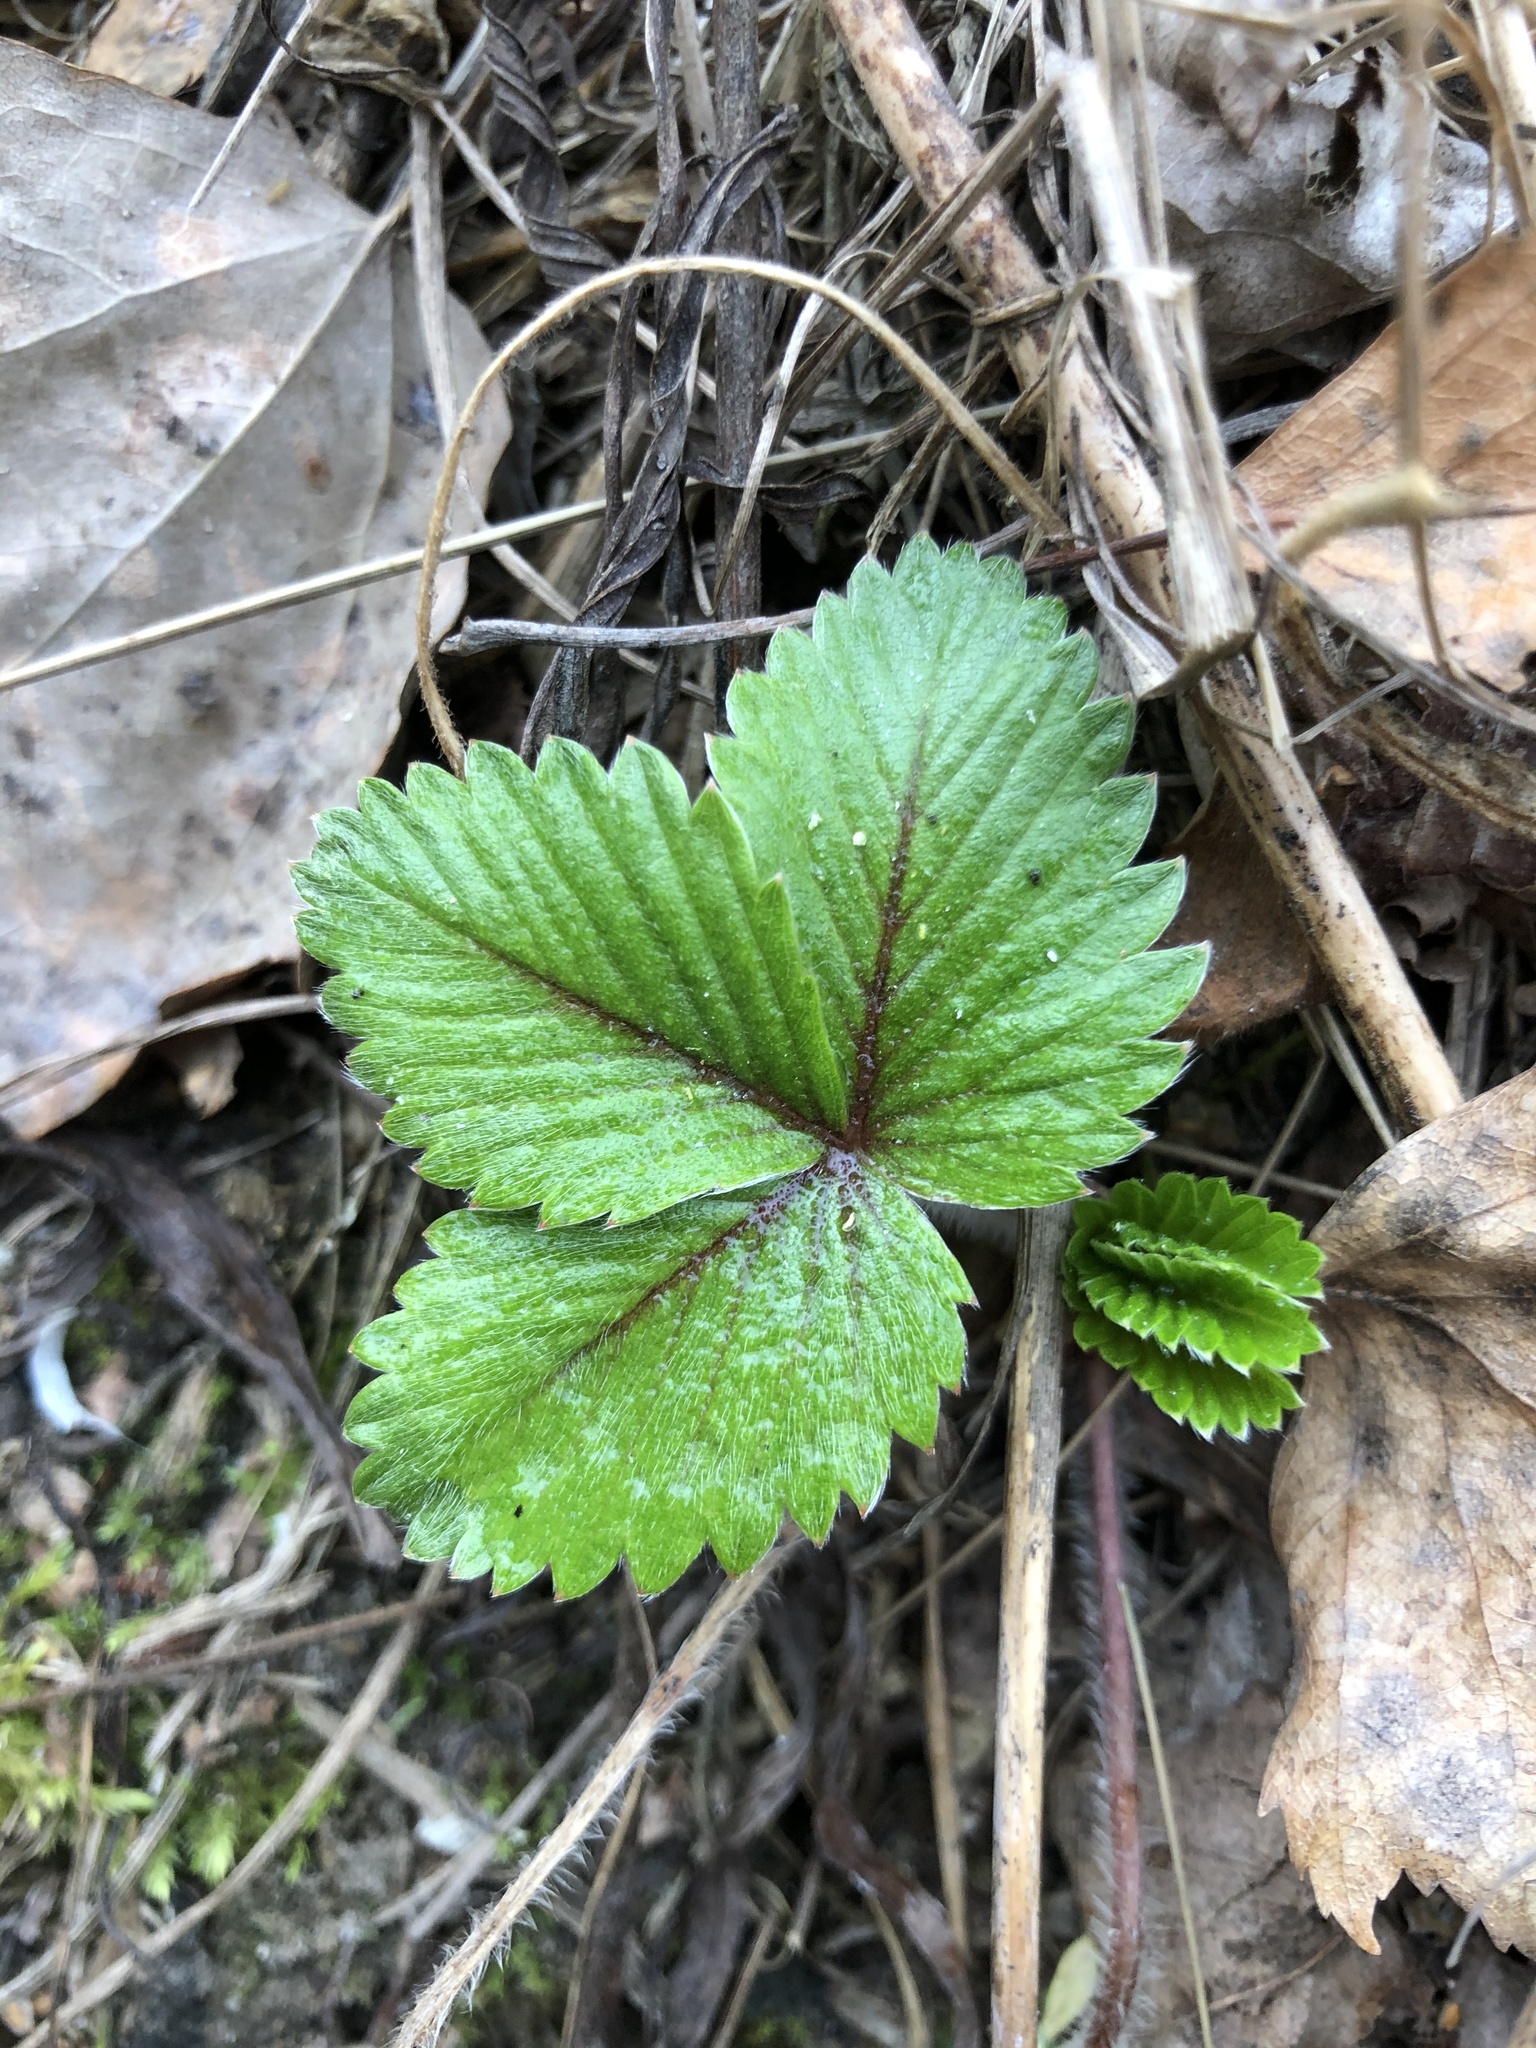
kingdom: Plantae
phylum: Tracheophyta
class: Magnoliopsida
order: Rosales
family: Rosaceae
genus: Fragaria
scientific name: Fragaria vesca
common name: Wild strawberry
